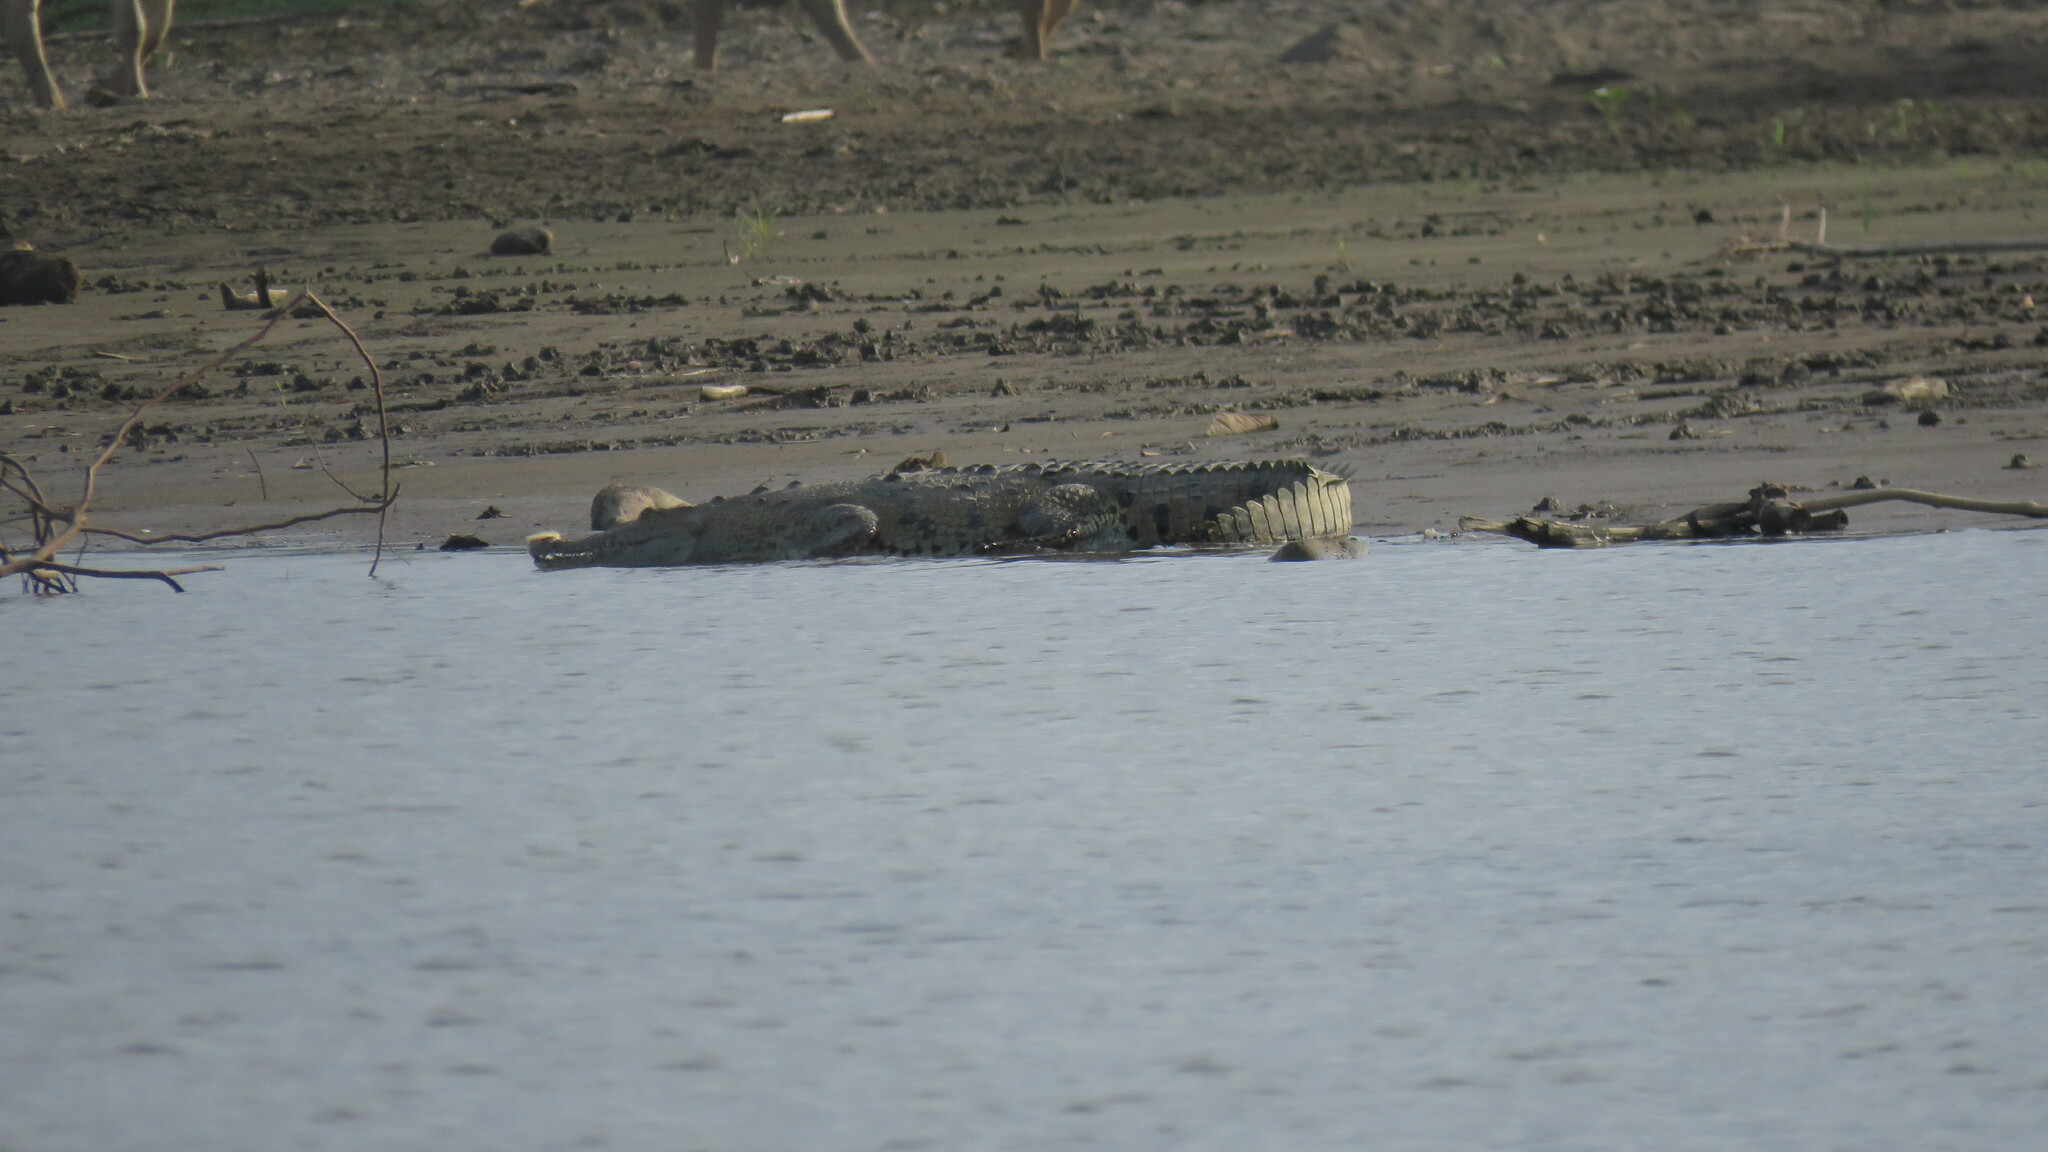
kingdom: Animalia
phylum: Chordata
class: Crocodylia
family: Crocodylidae
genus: Crocodylus
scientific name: Crocodylus acutus
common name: American crocodile
